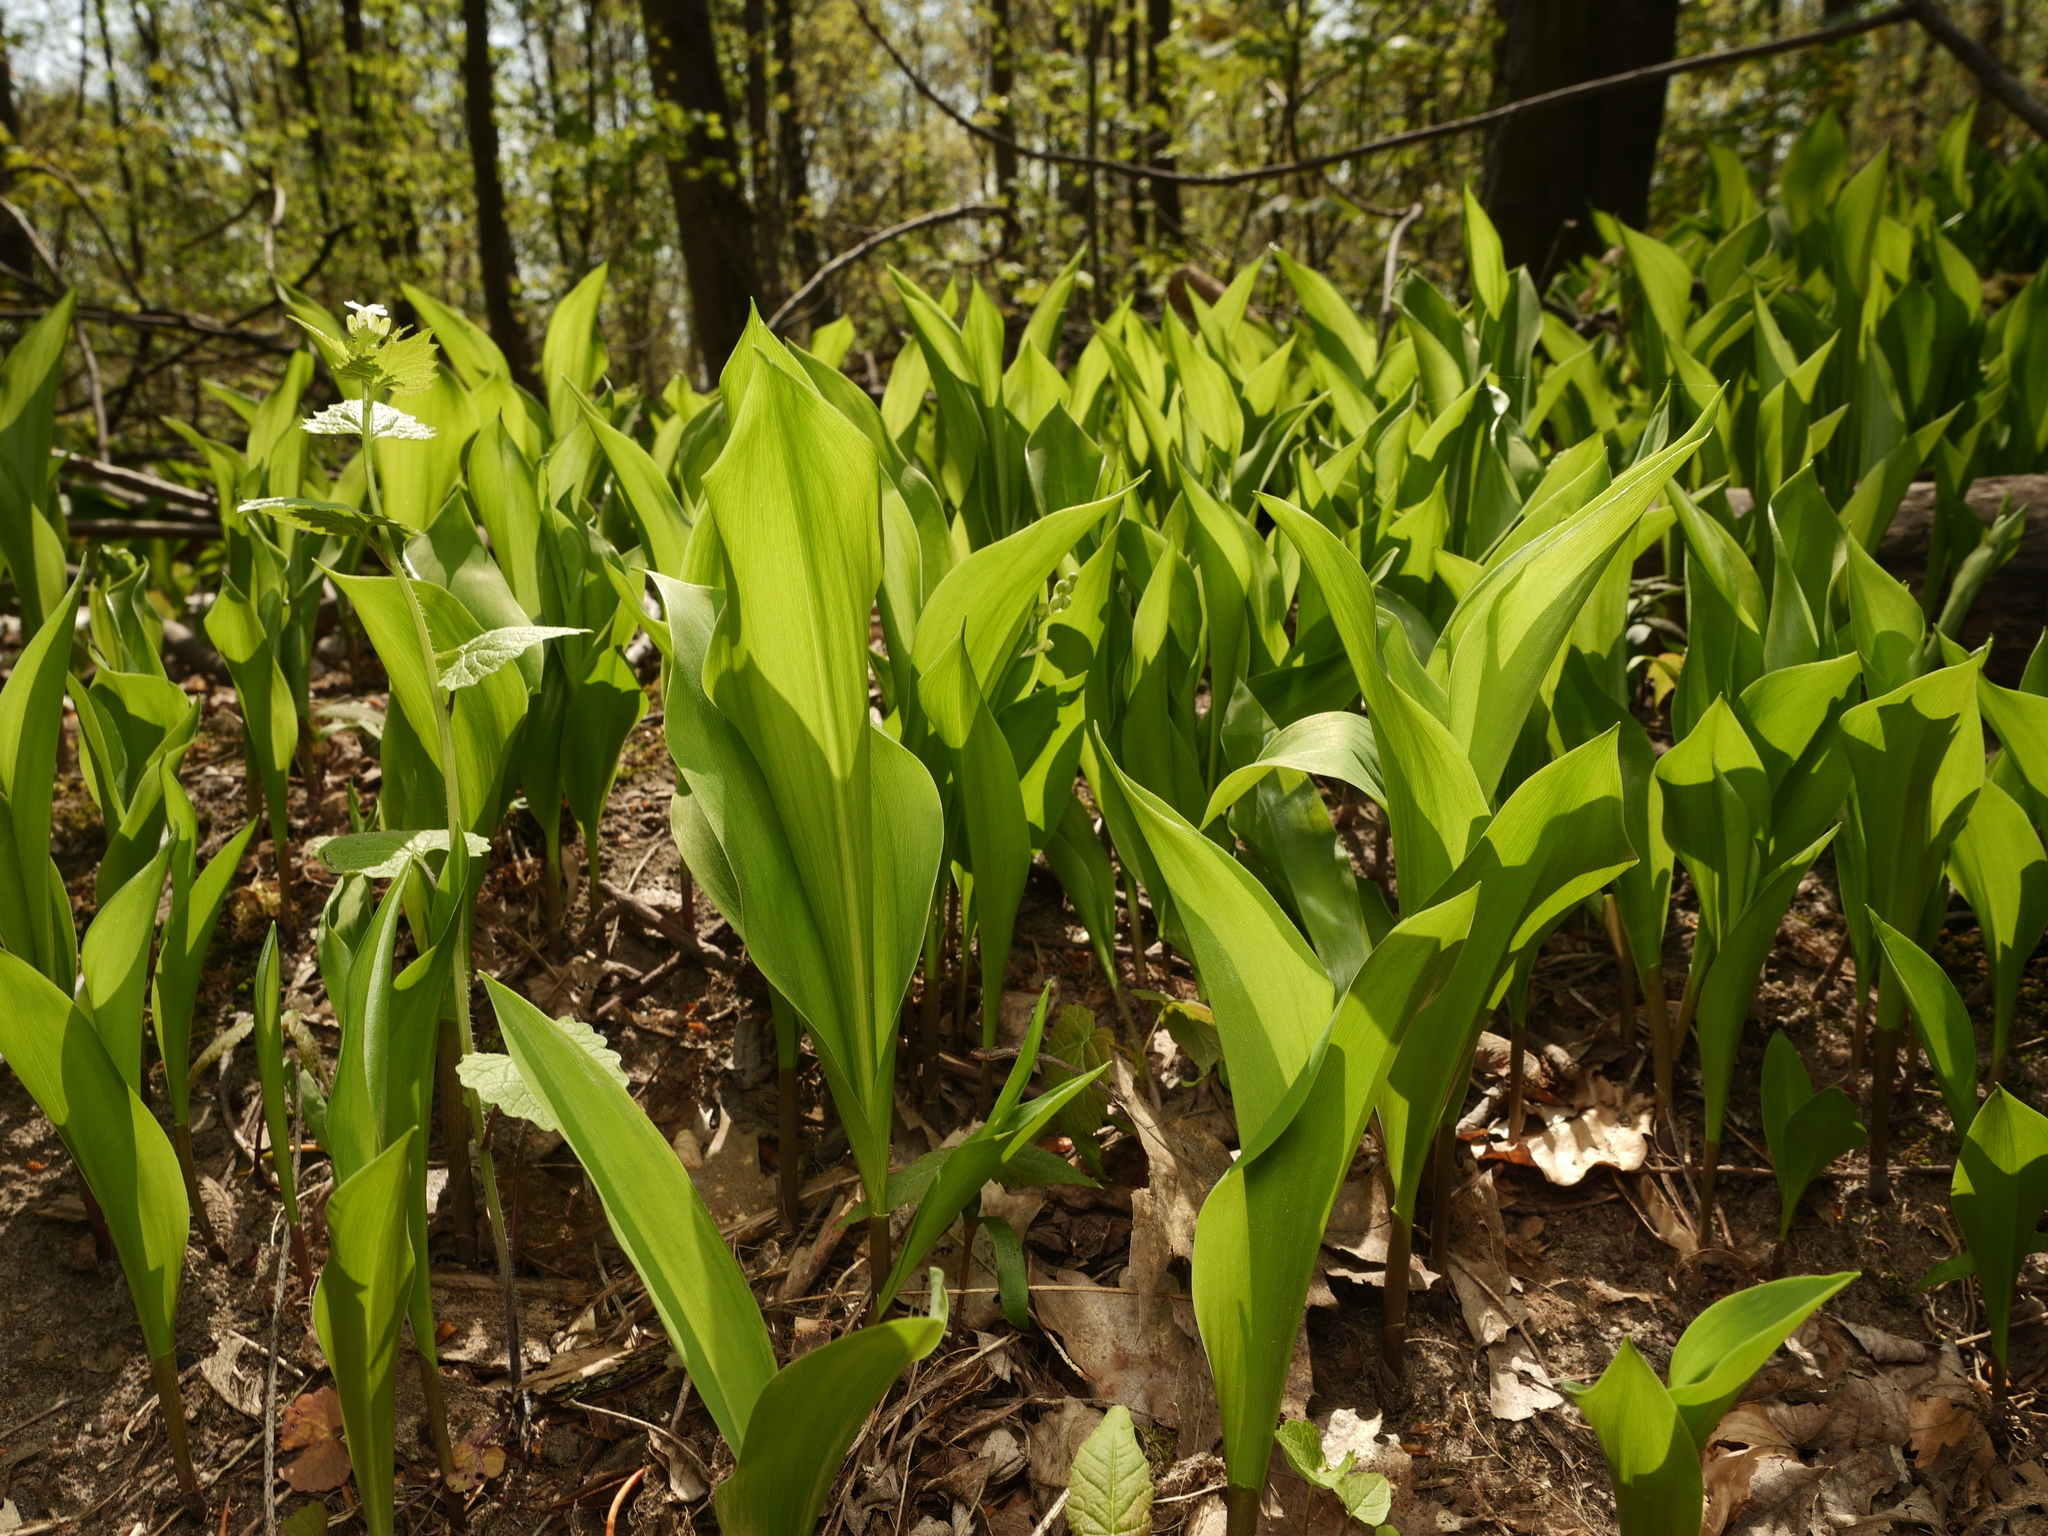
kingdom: Plantae
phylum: Tracheophyta
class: Liliopsida
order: Asparagales
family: Asparagaceae
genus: Convallaria
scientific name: Convallaria majalis
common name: Lily-of-the-valley
